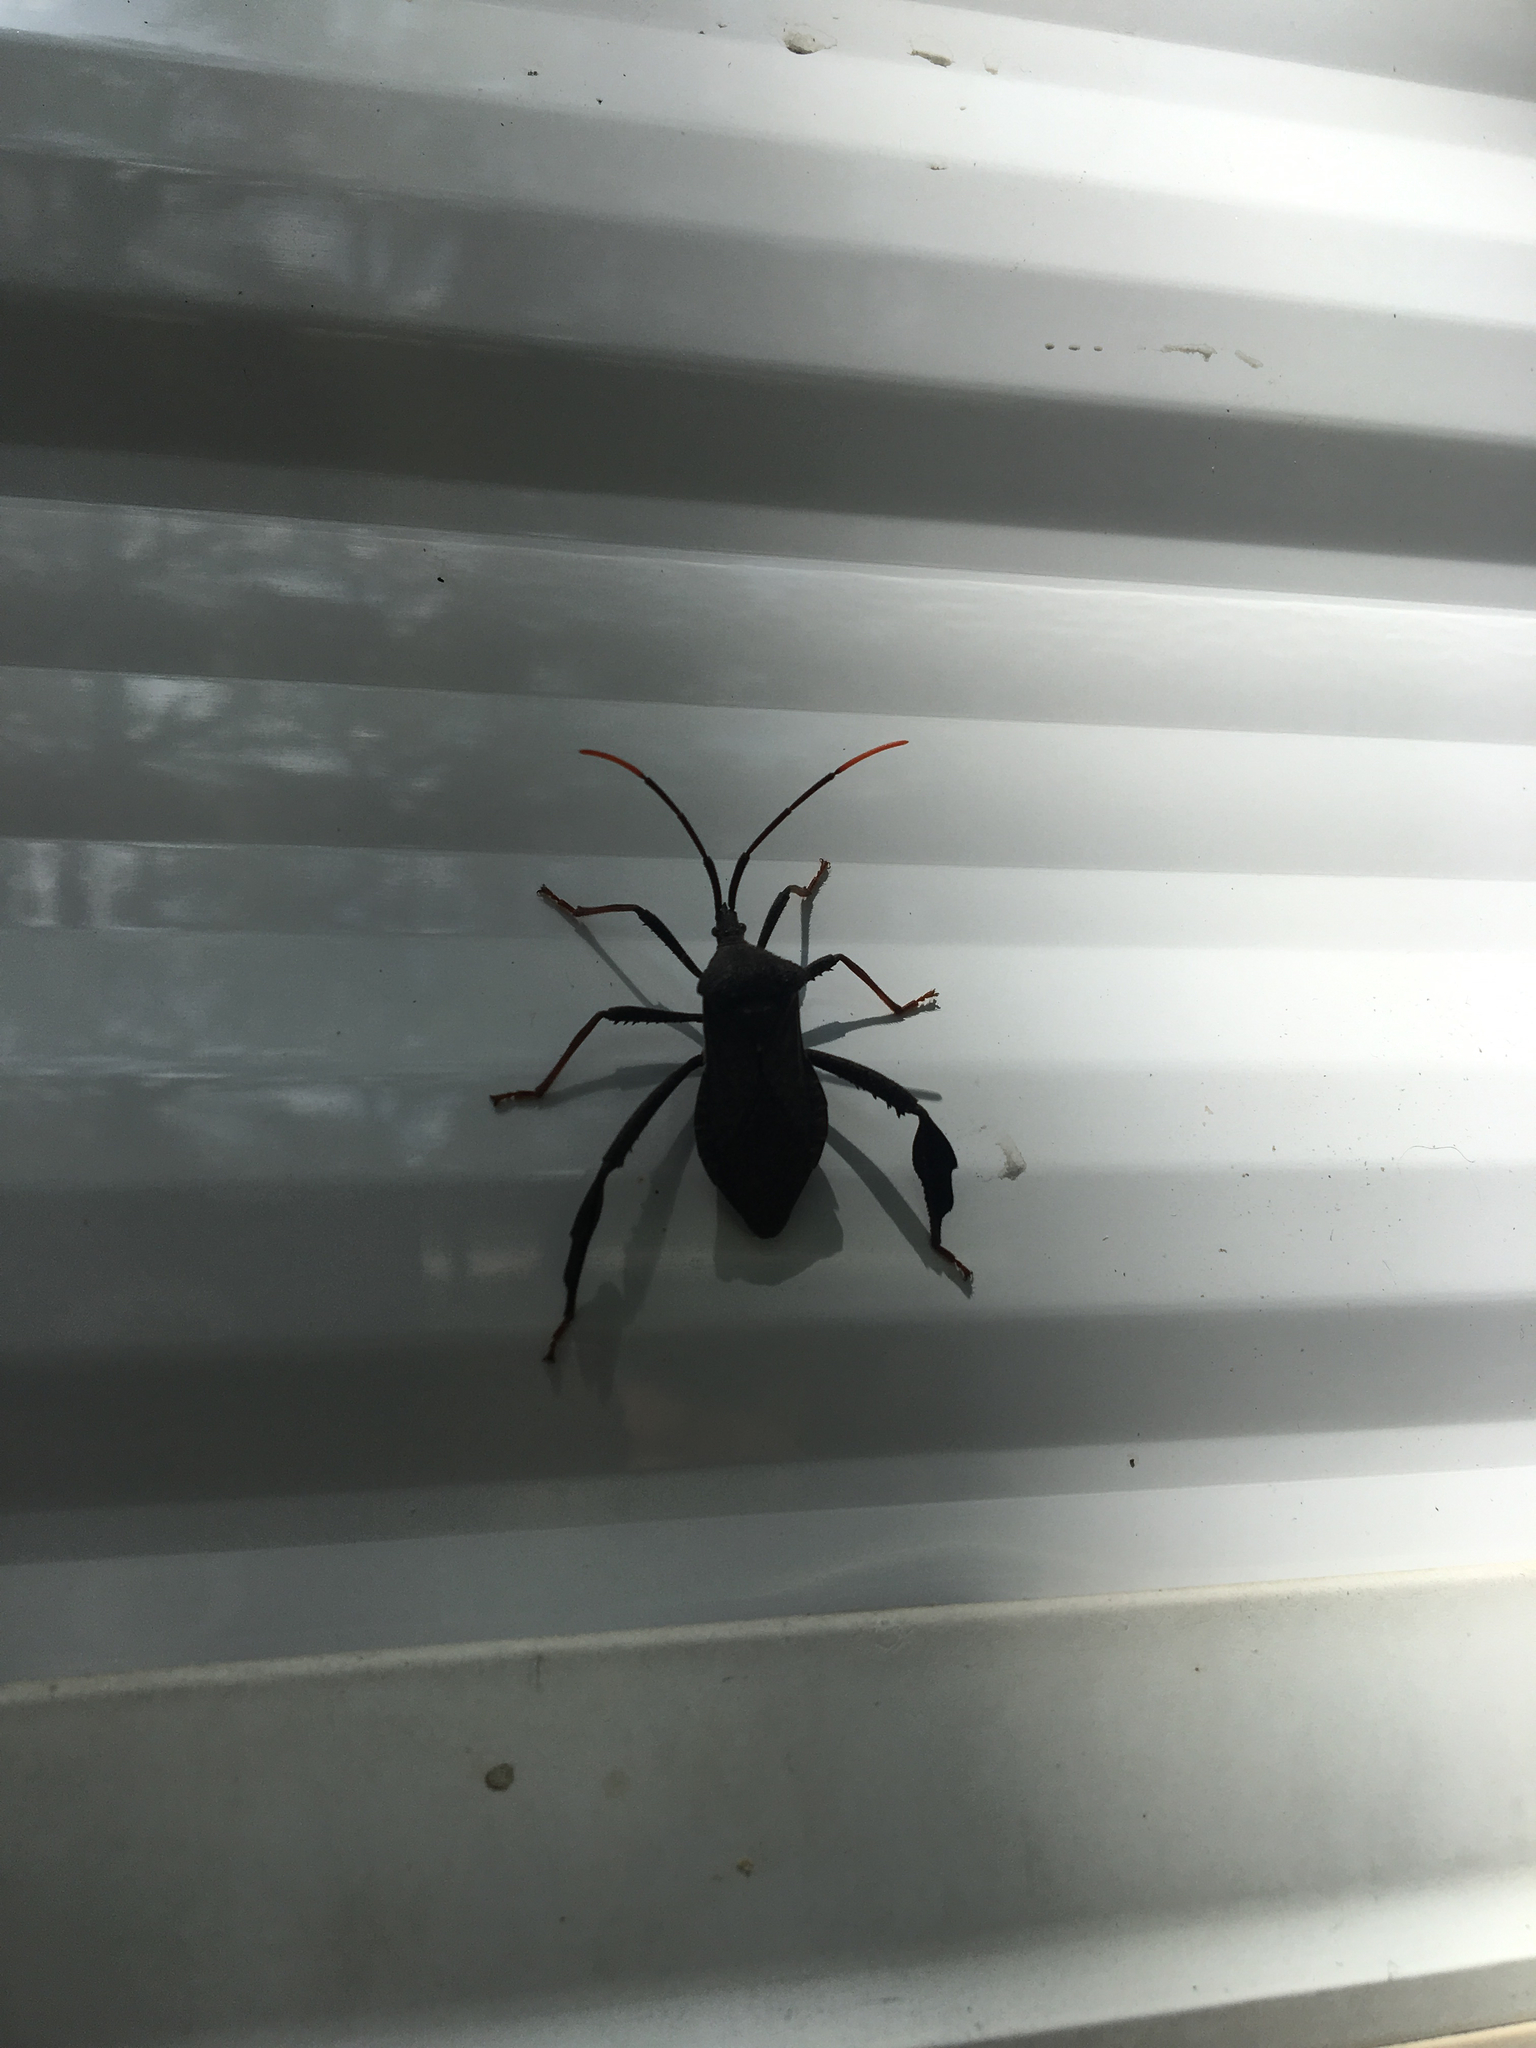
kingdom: Animalia
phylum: Arthropoda
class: Insecta
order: Hemiptera
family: Coreidae
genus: Acanthocephala
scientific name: Acanthocephala terminalis
